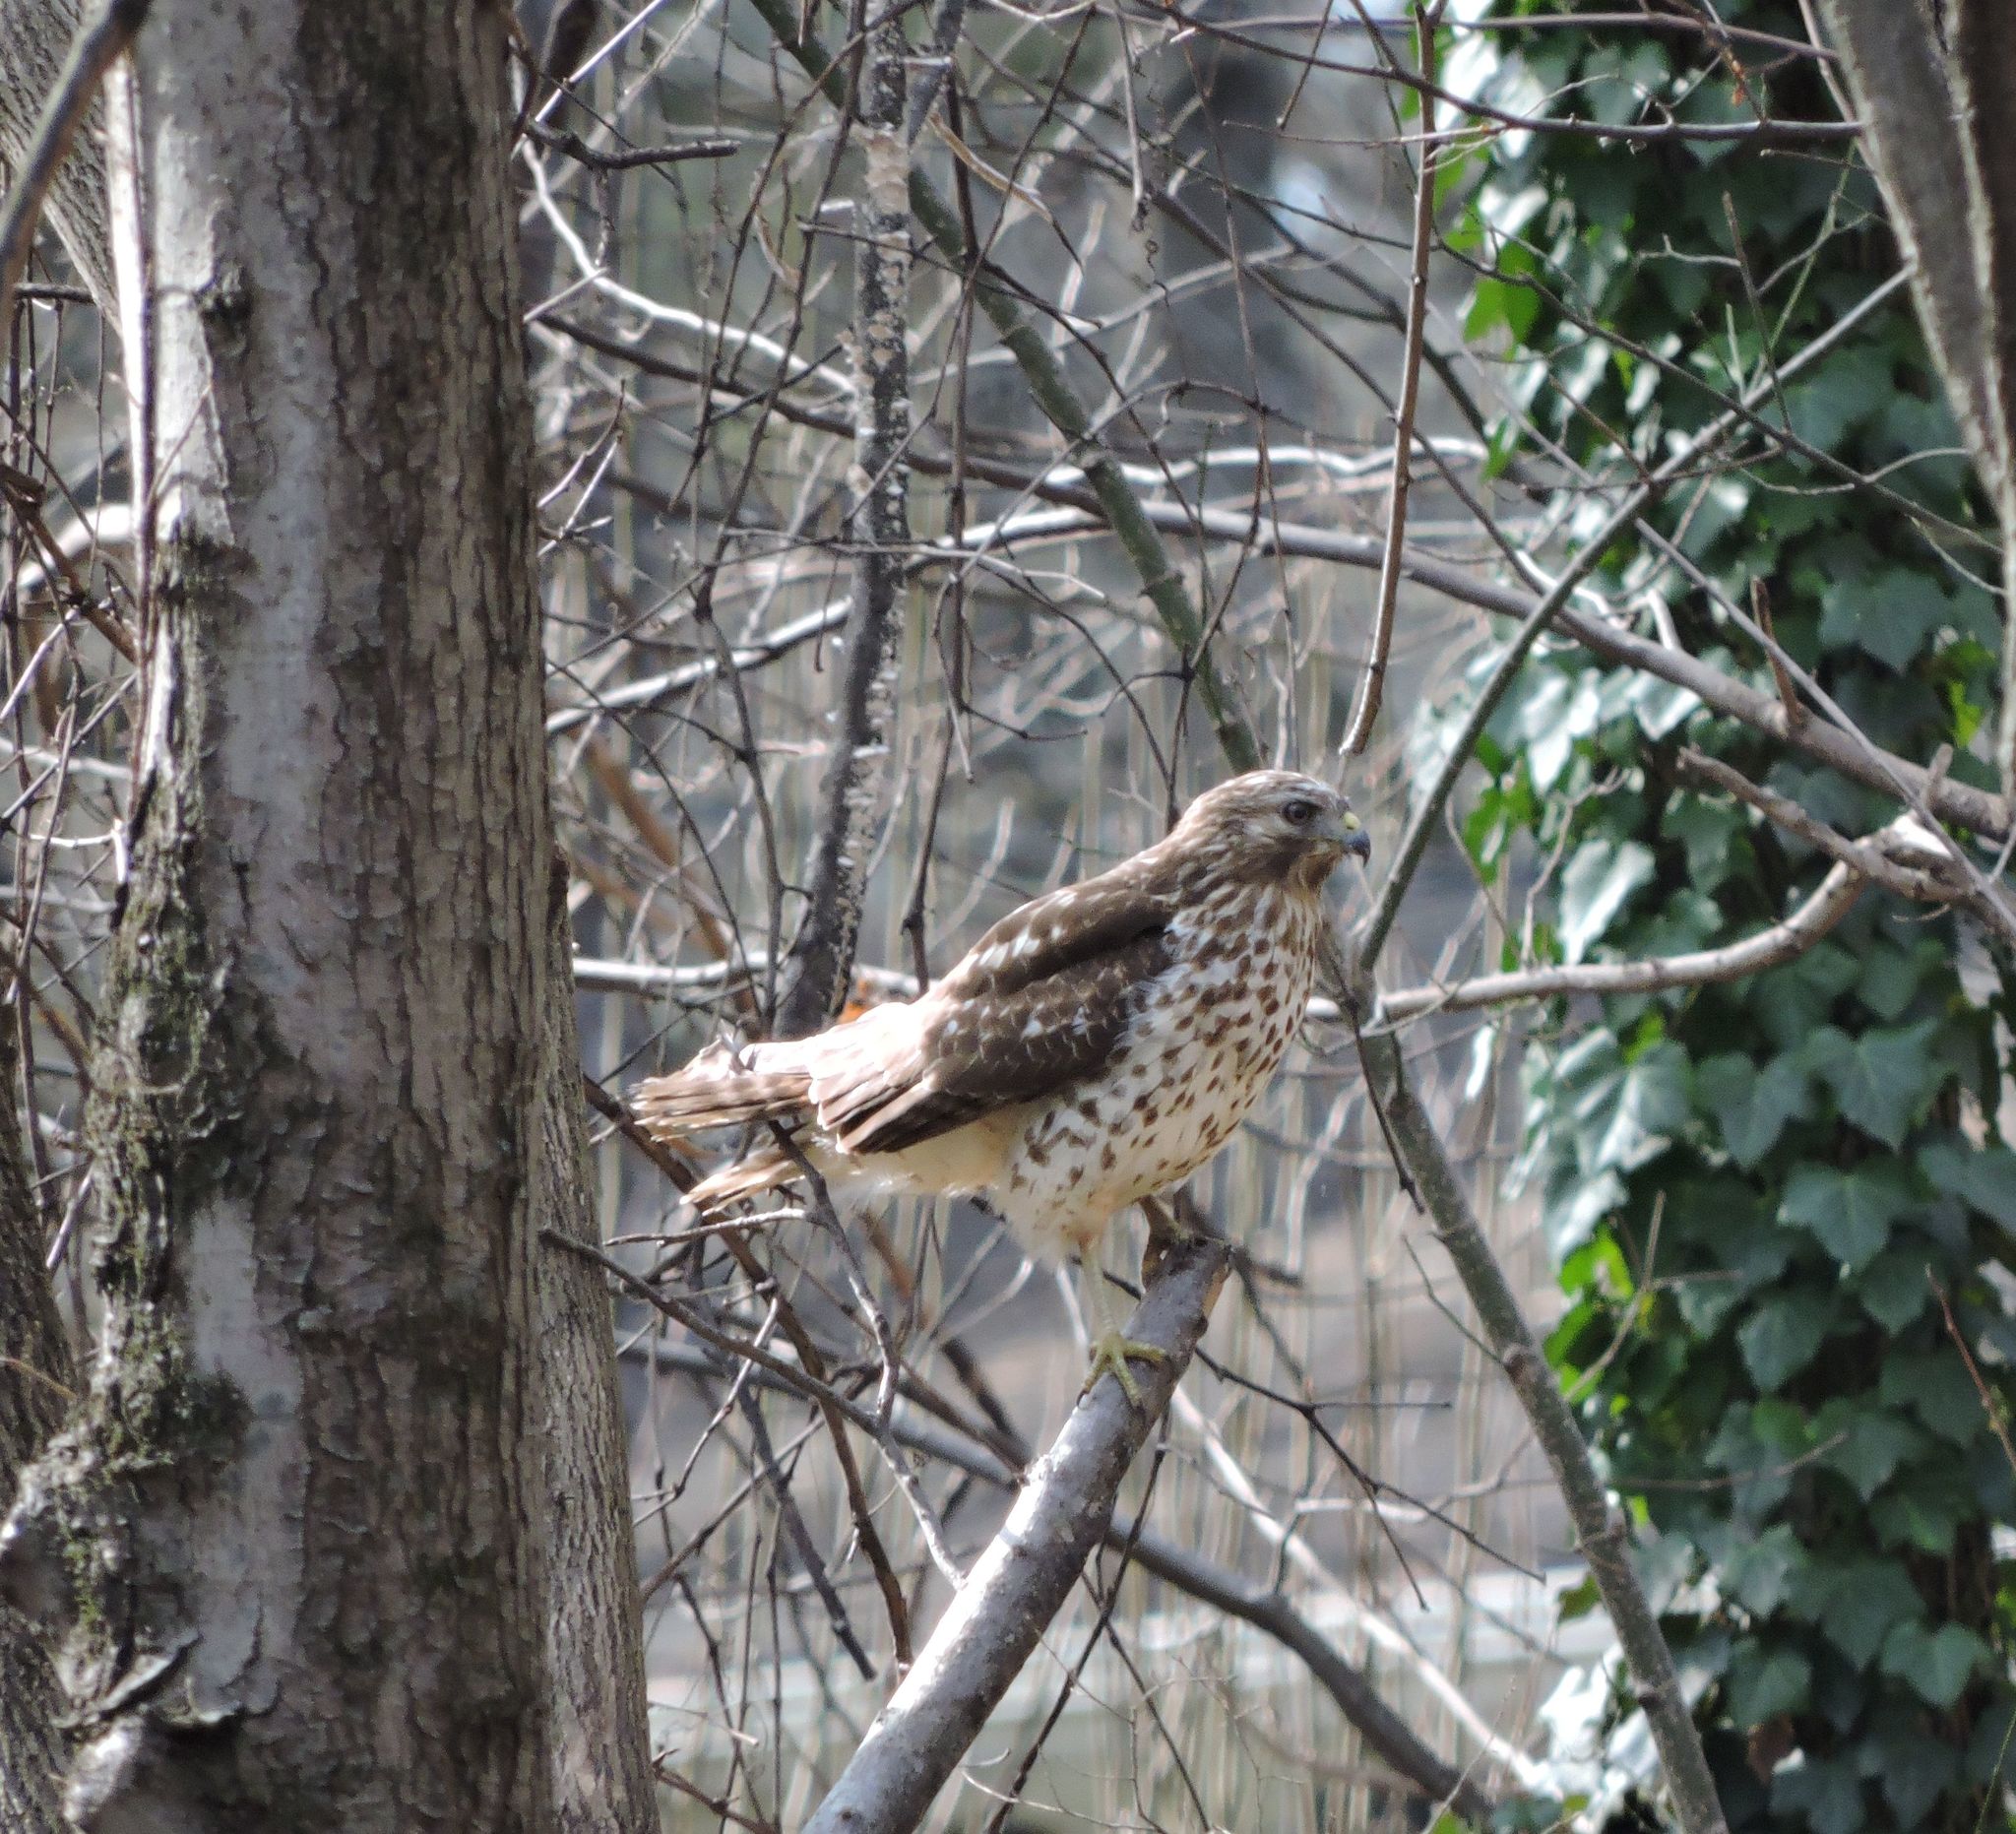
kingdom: Animalia
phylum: Chordata
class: Aves
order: Accipitriformes
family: Accipitridae
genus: Buteo
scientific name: Buteo lineatus
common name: Red-shouldered hawk
